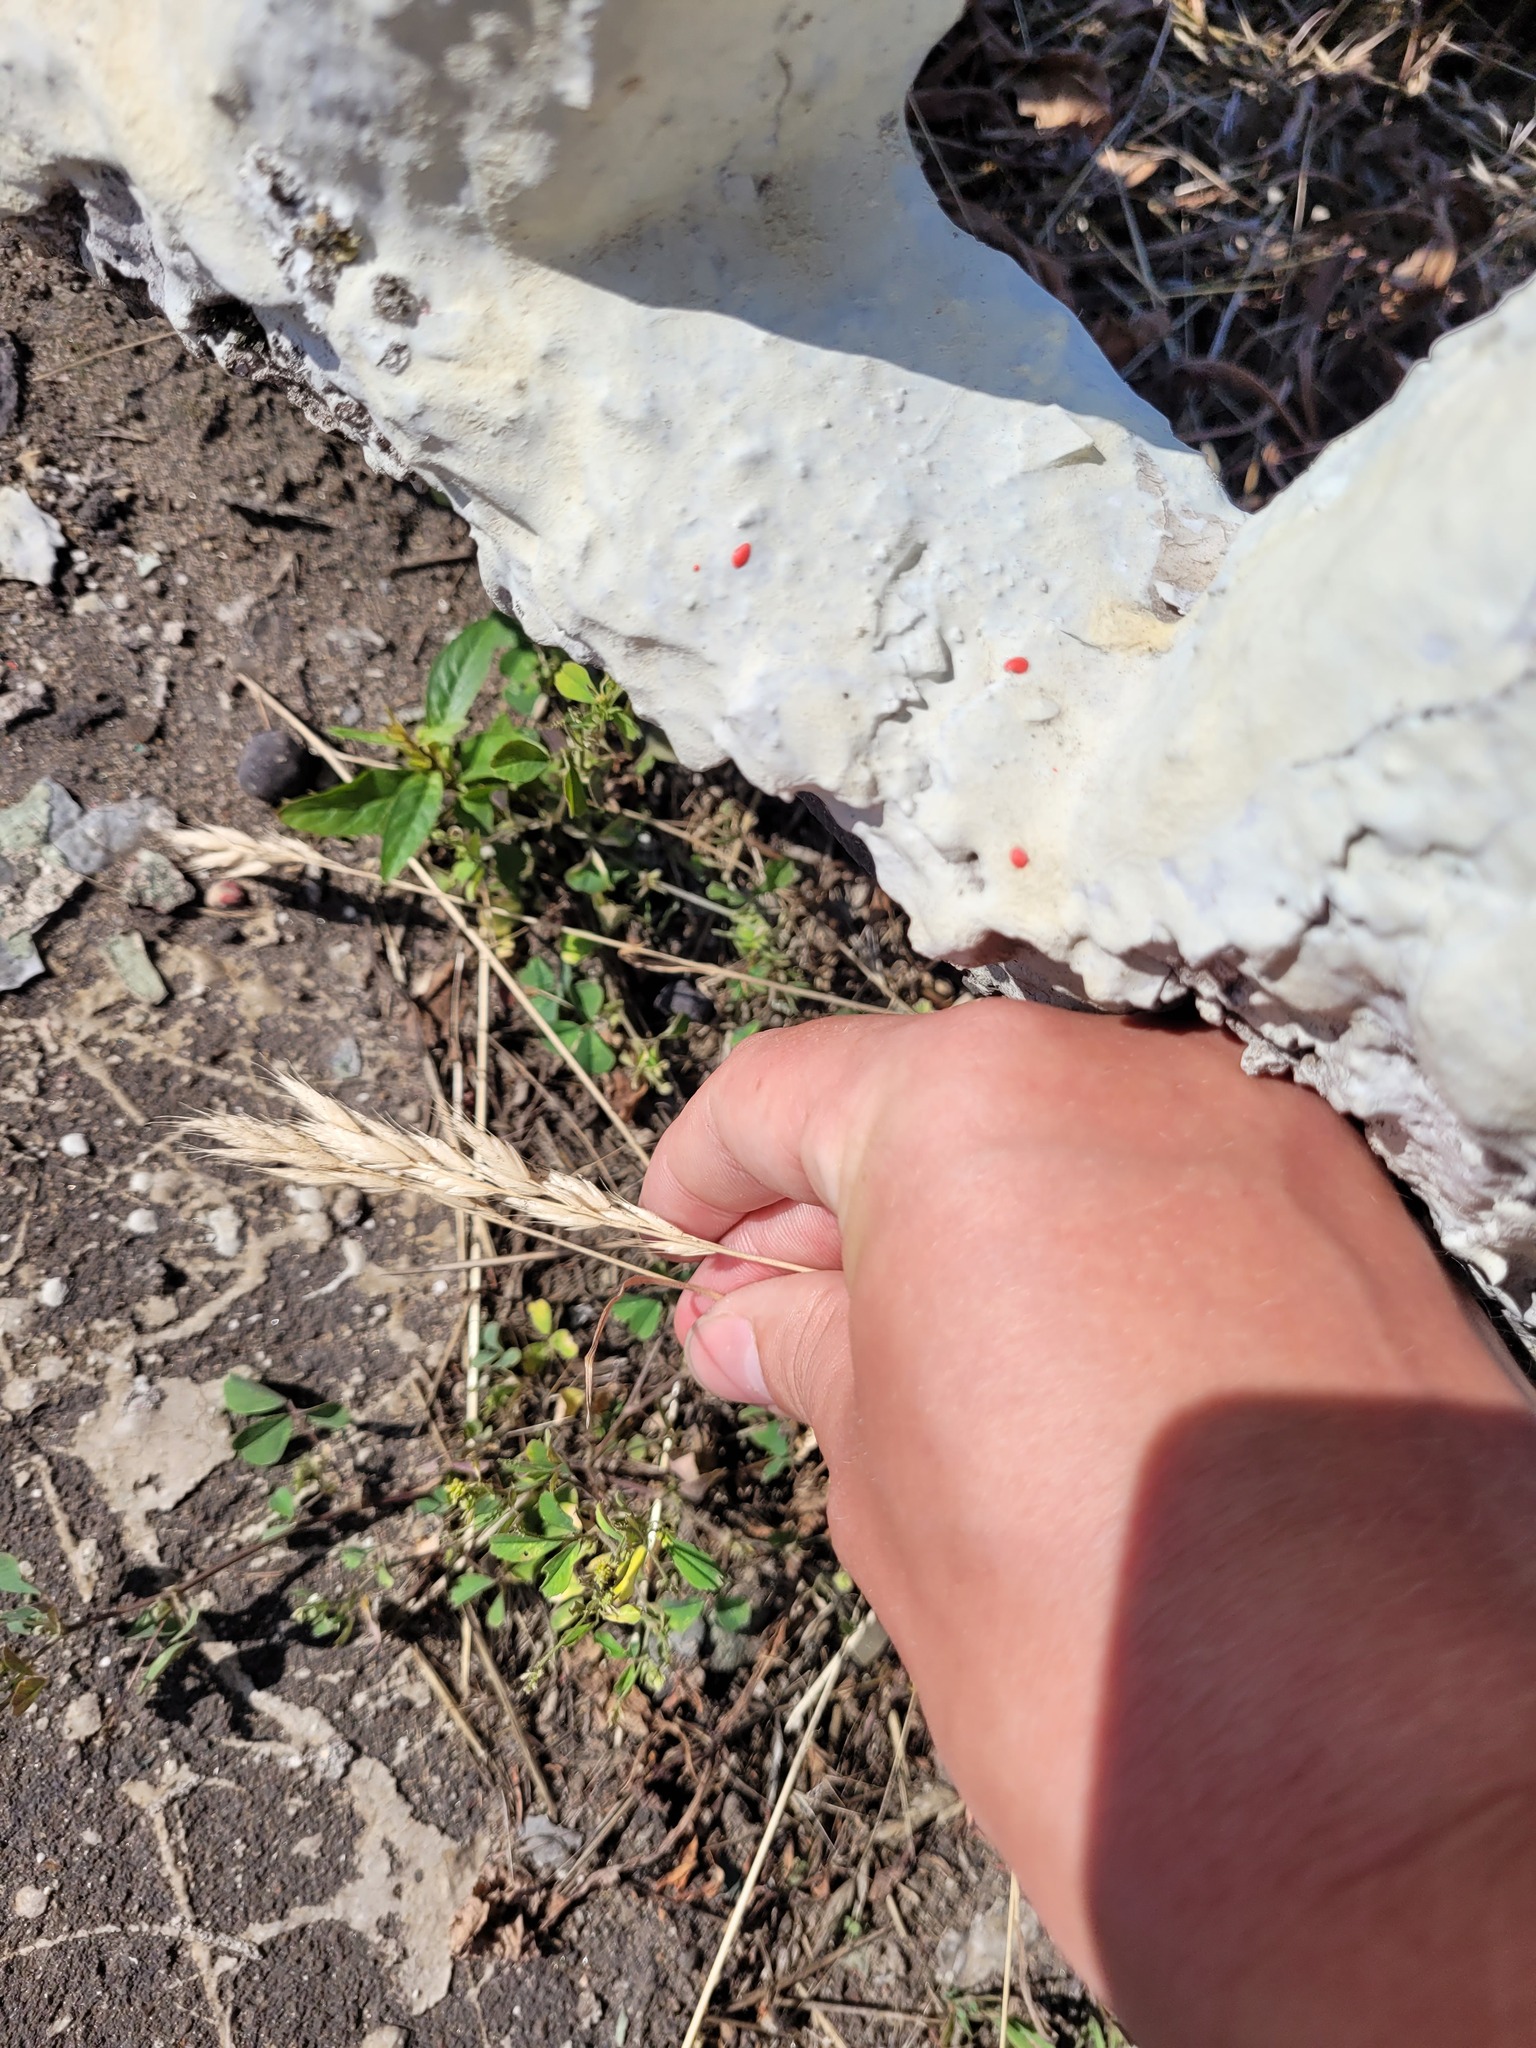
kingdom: Plantae
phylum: Tracheophyta
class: Liliopsida
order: Poales
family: Poaceae
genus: Bromus
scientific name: Bromus hordeaceus
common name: Soft brome
